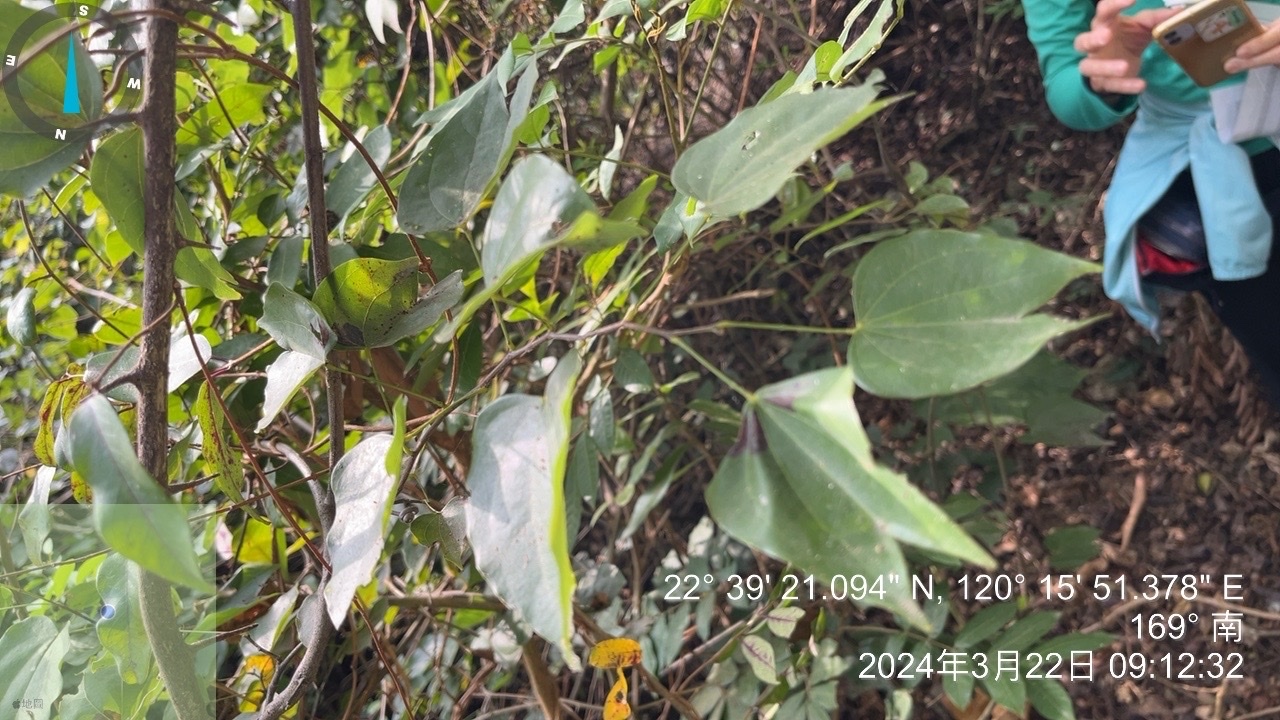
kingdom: Plantae
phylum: Tracheophyta
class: Magnoliopsida
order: Fabales
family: Fabaceae
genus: Phanera
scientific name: Phanera championii
